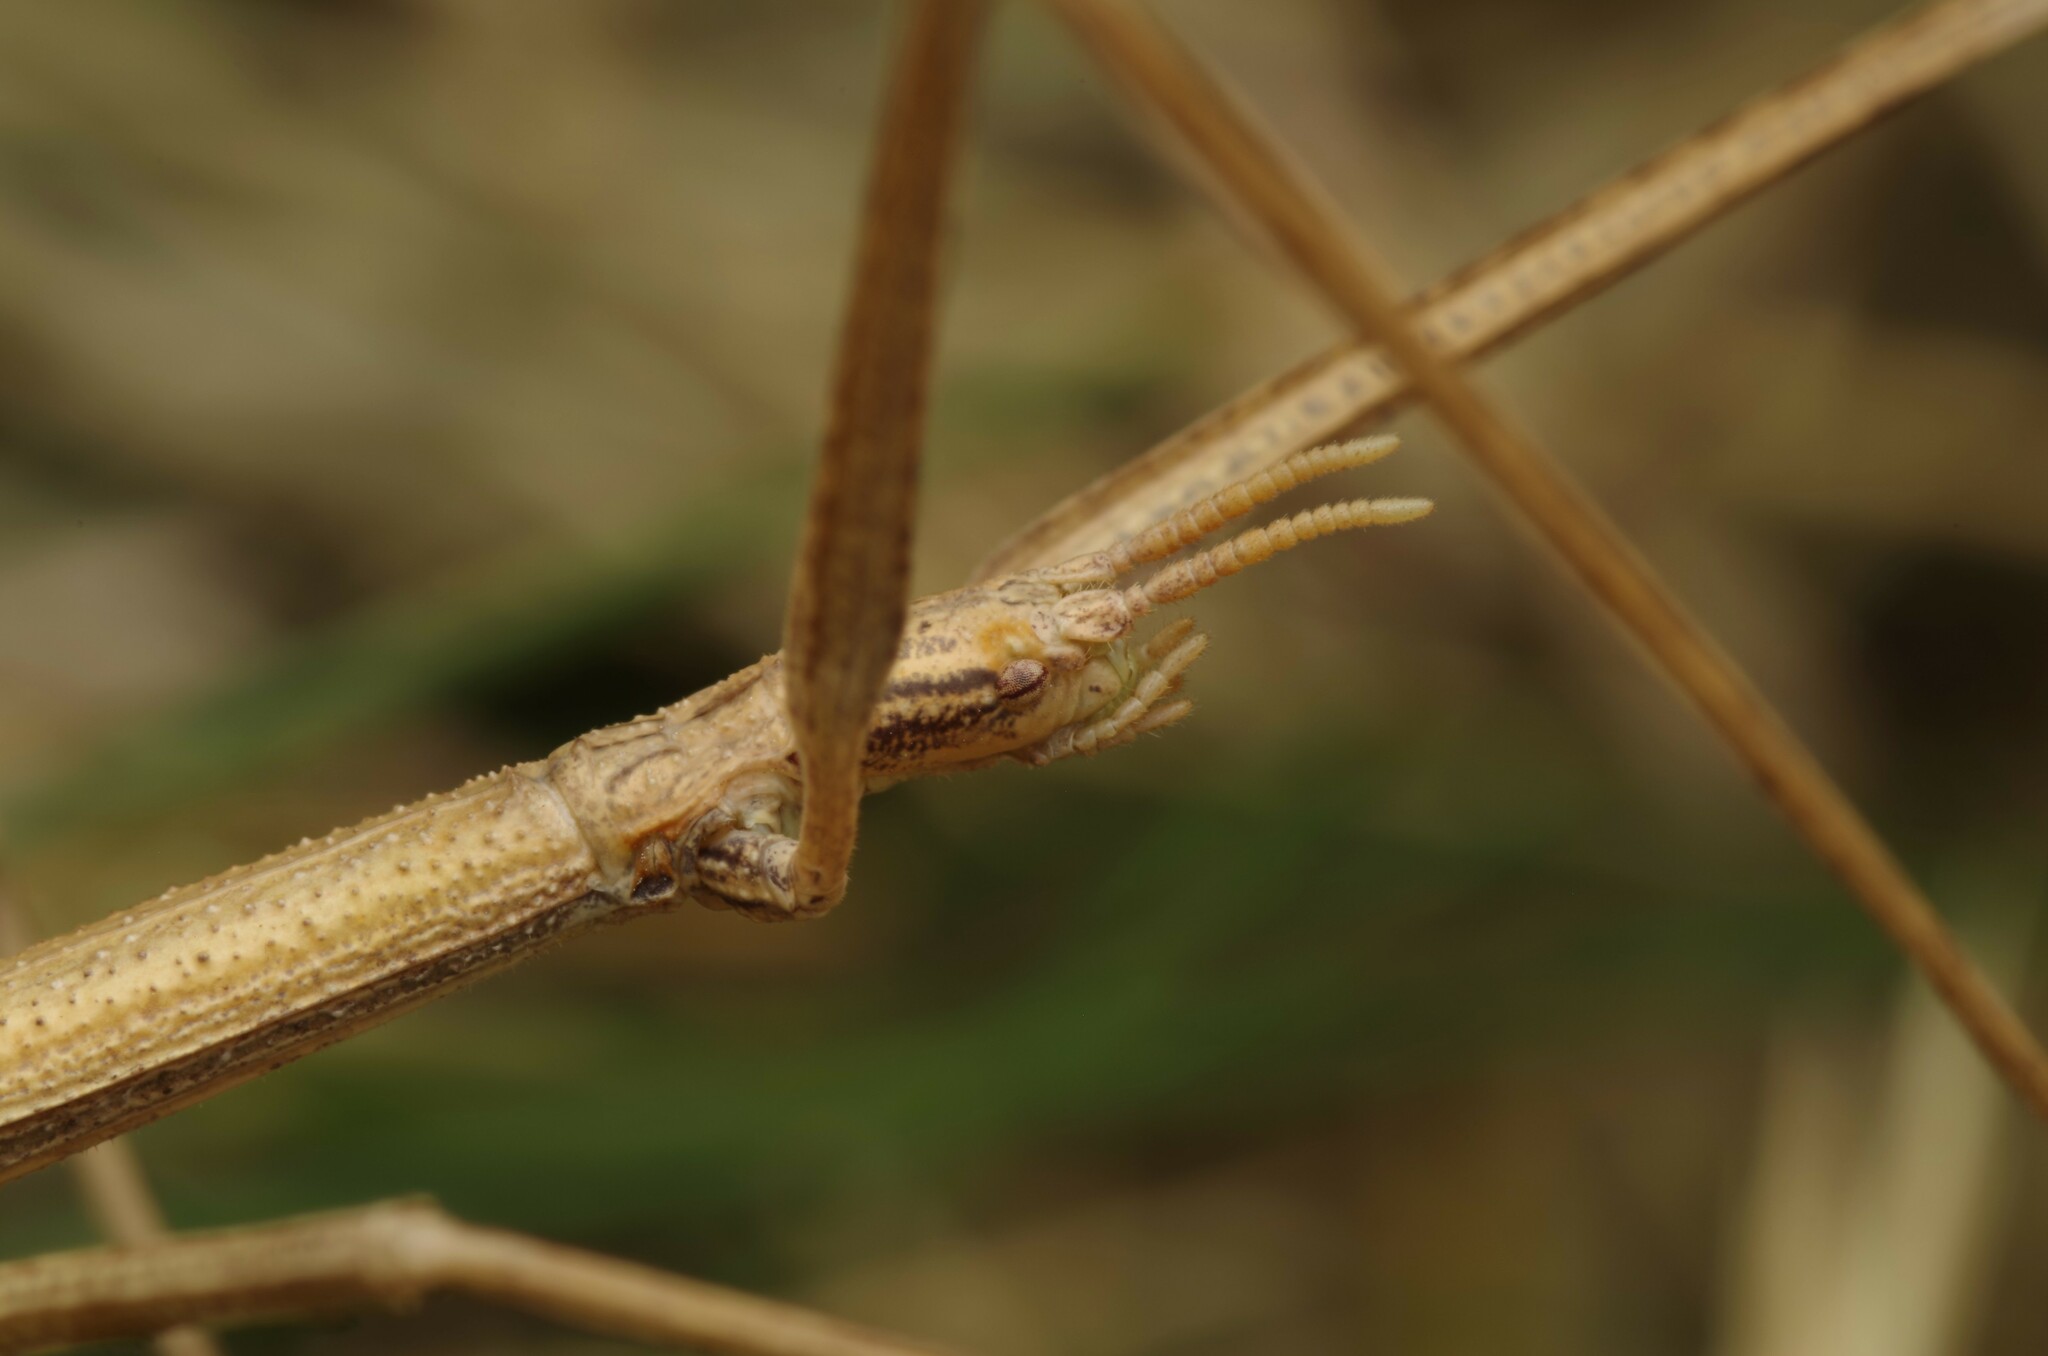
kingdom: Animalia
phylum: Arthropoda
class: Insecta
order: Phasmida
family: Bacillidae
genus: Clonopsis
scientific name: Clonopsis gallica
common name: French stick insect
